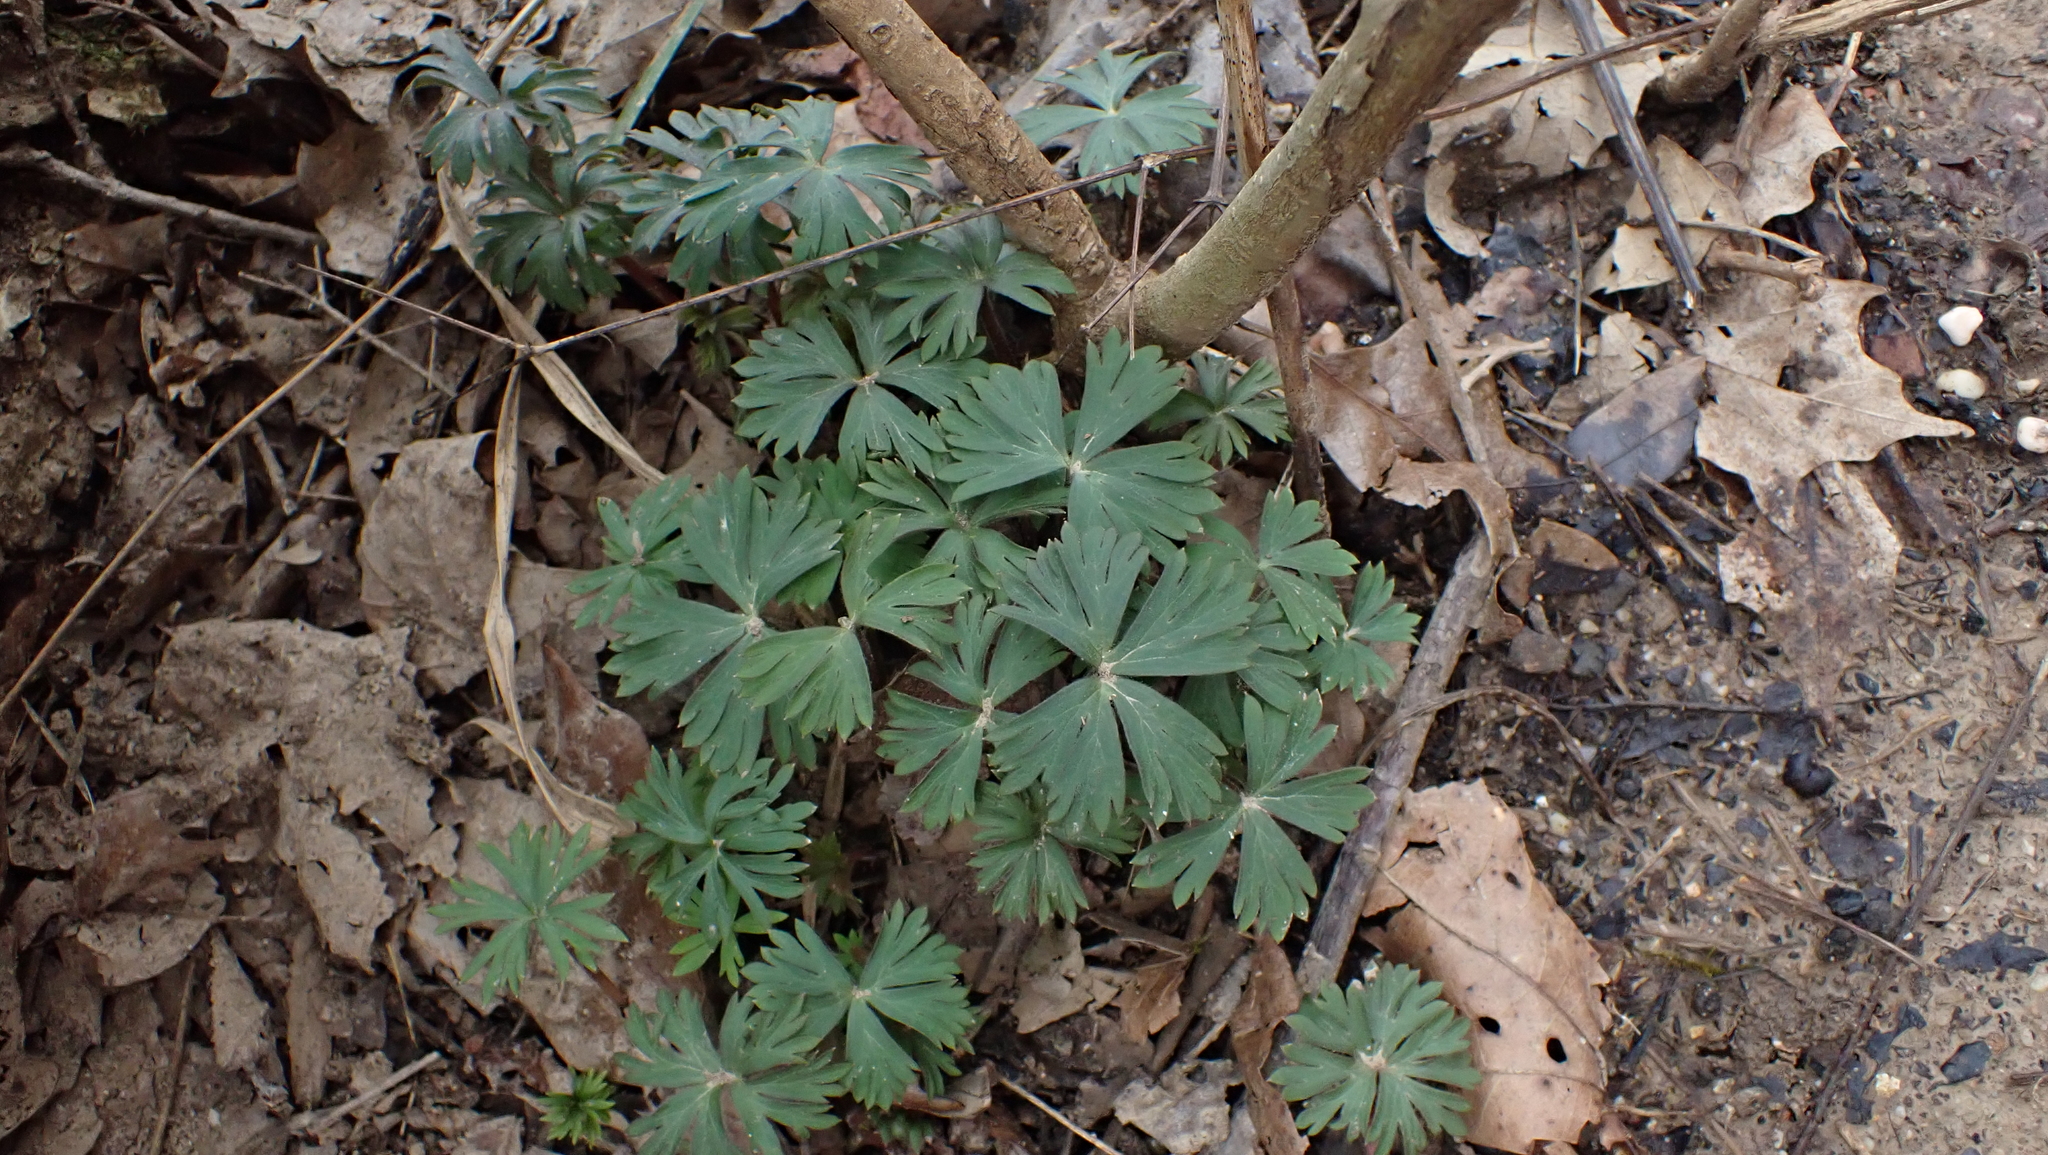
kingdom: Plantae
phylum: Tracheophyta
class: Magnoliopsida
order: Ranunculales
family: Ranunculaceae
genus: Delphinium
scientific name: Delphinium tricorne
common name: Dwarf larkspur
